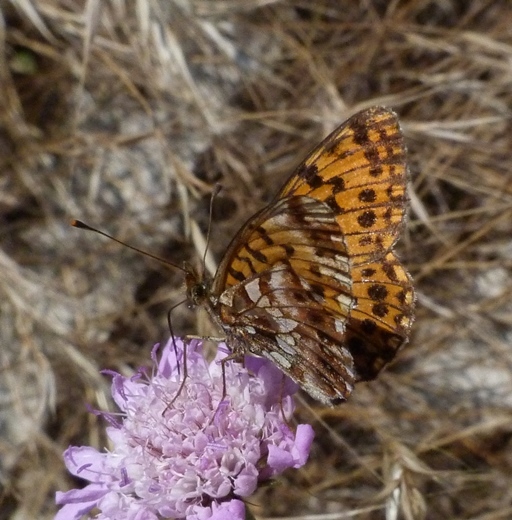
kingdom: Animalia
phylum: Arthropoda
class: Insecta
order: Lepidoptera
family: Nymphalidae
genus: Boloria
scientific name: Boloria dia
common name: Weaver's fritillary
